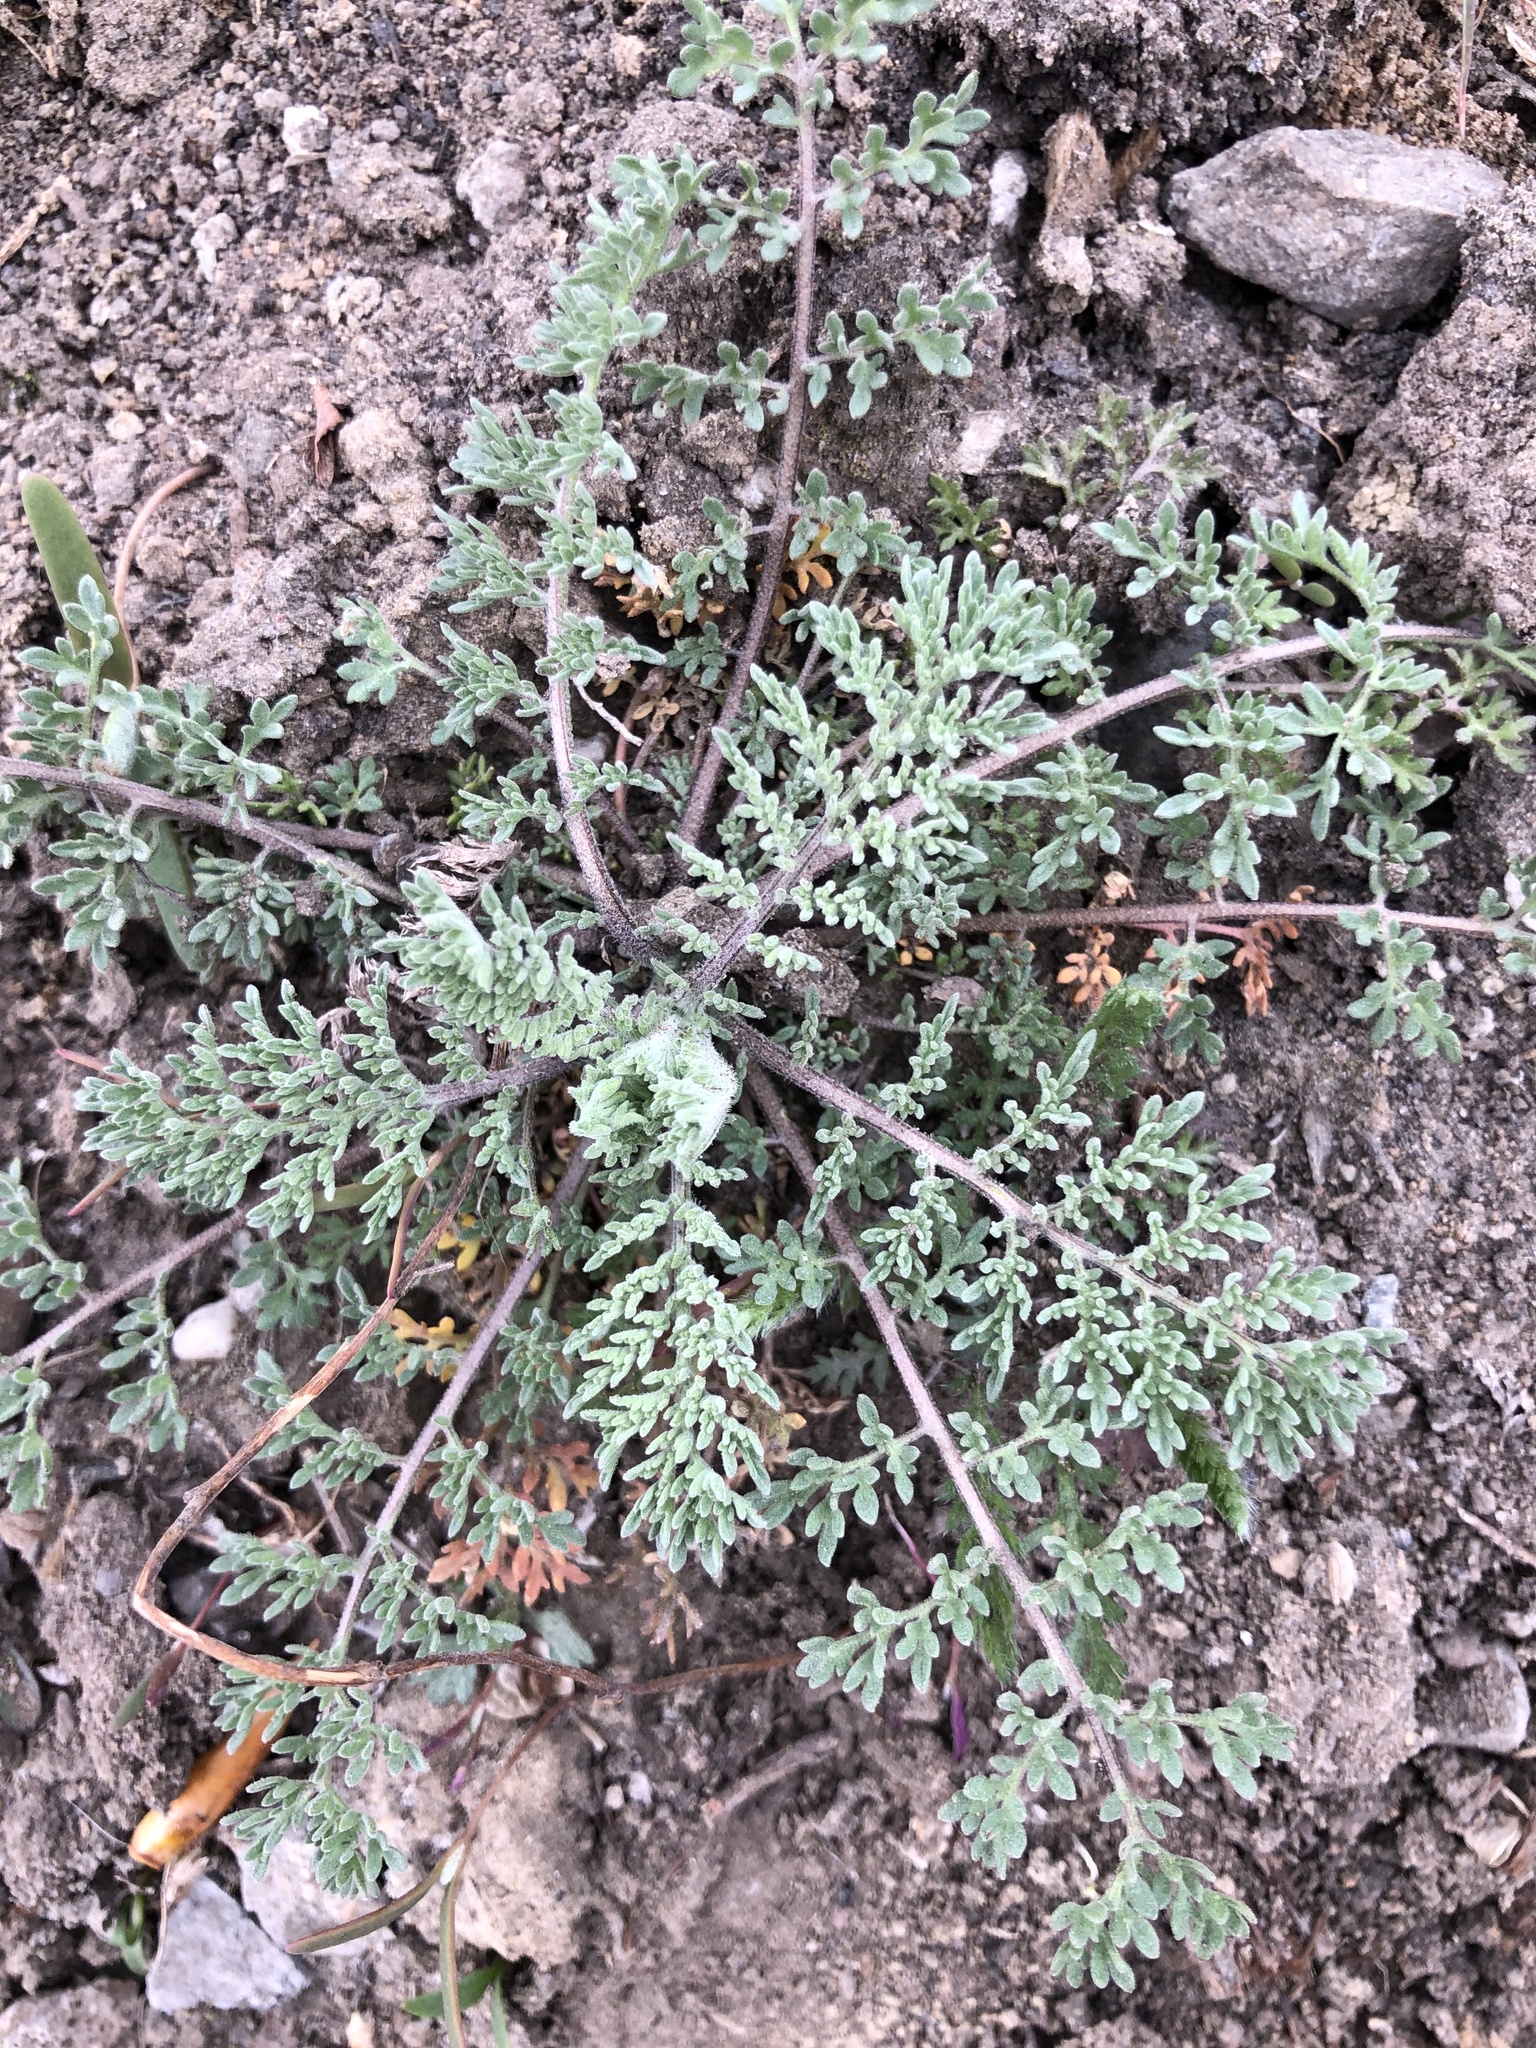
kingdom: Plantae
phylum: Tracheophyta
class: Magnoliopsida
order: Brassicales
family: Brassicaceae
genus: Descurainia
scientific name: Descurainia sophia
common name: Flixweed
